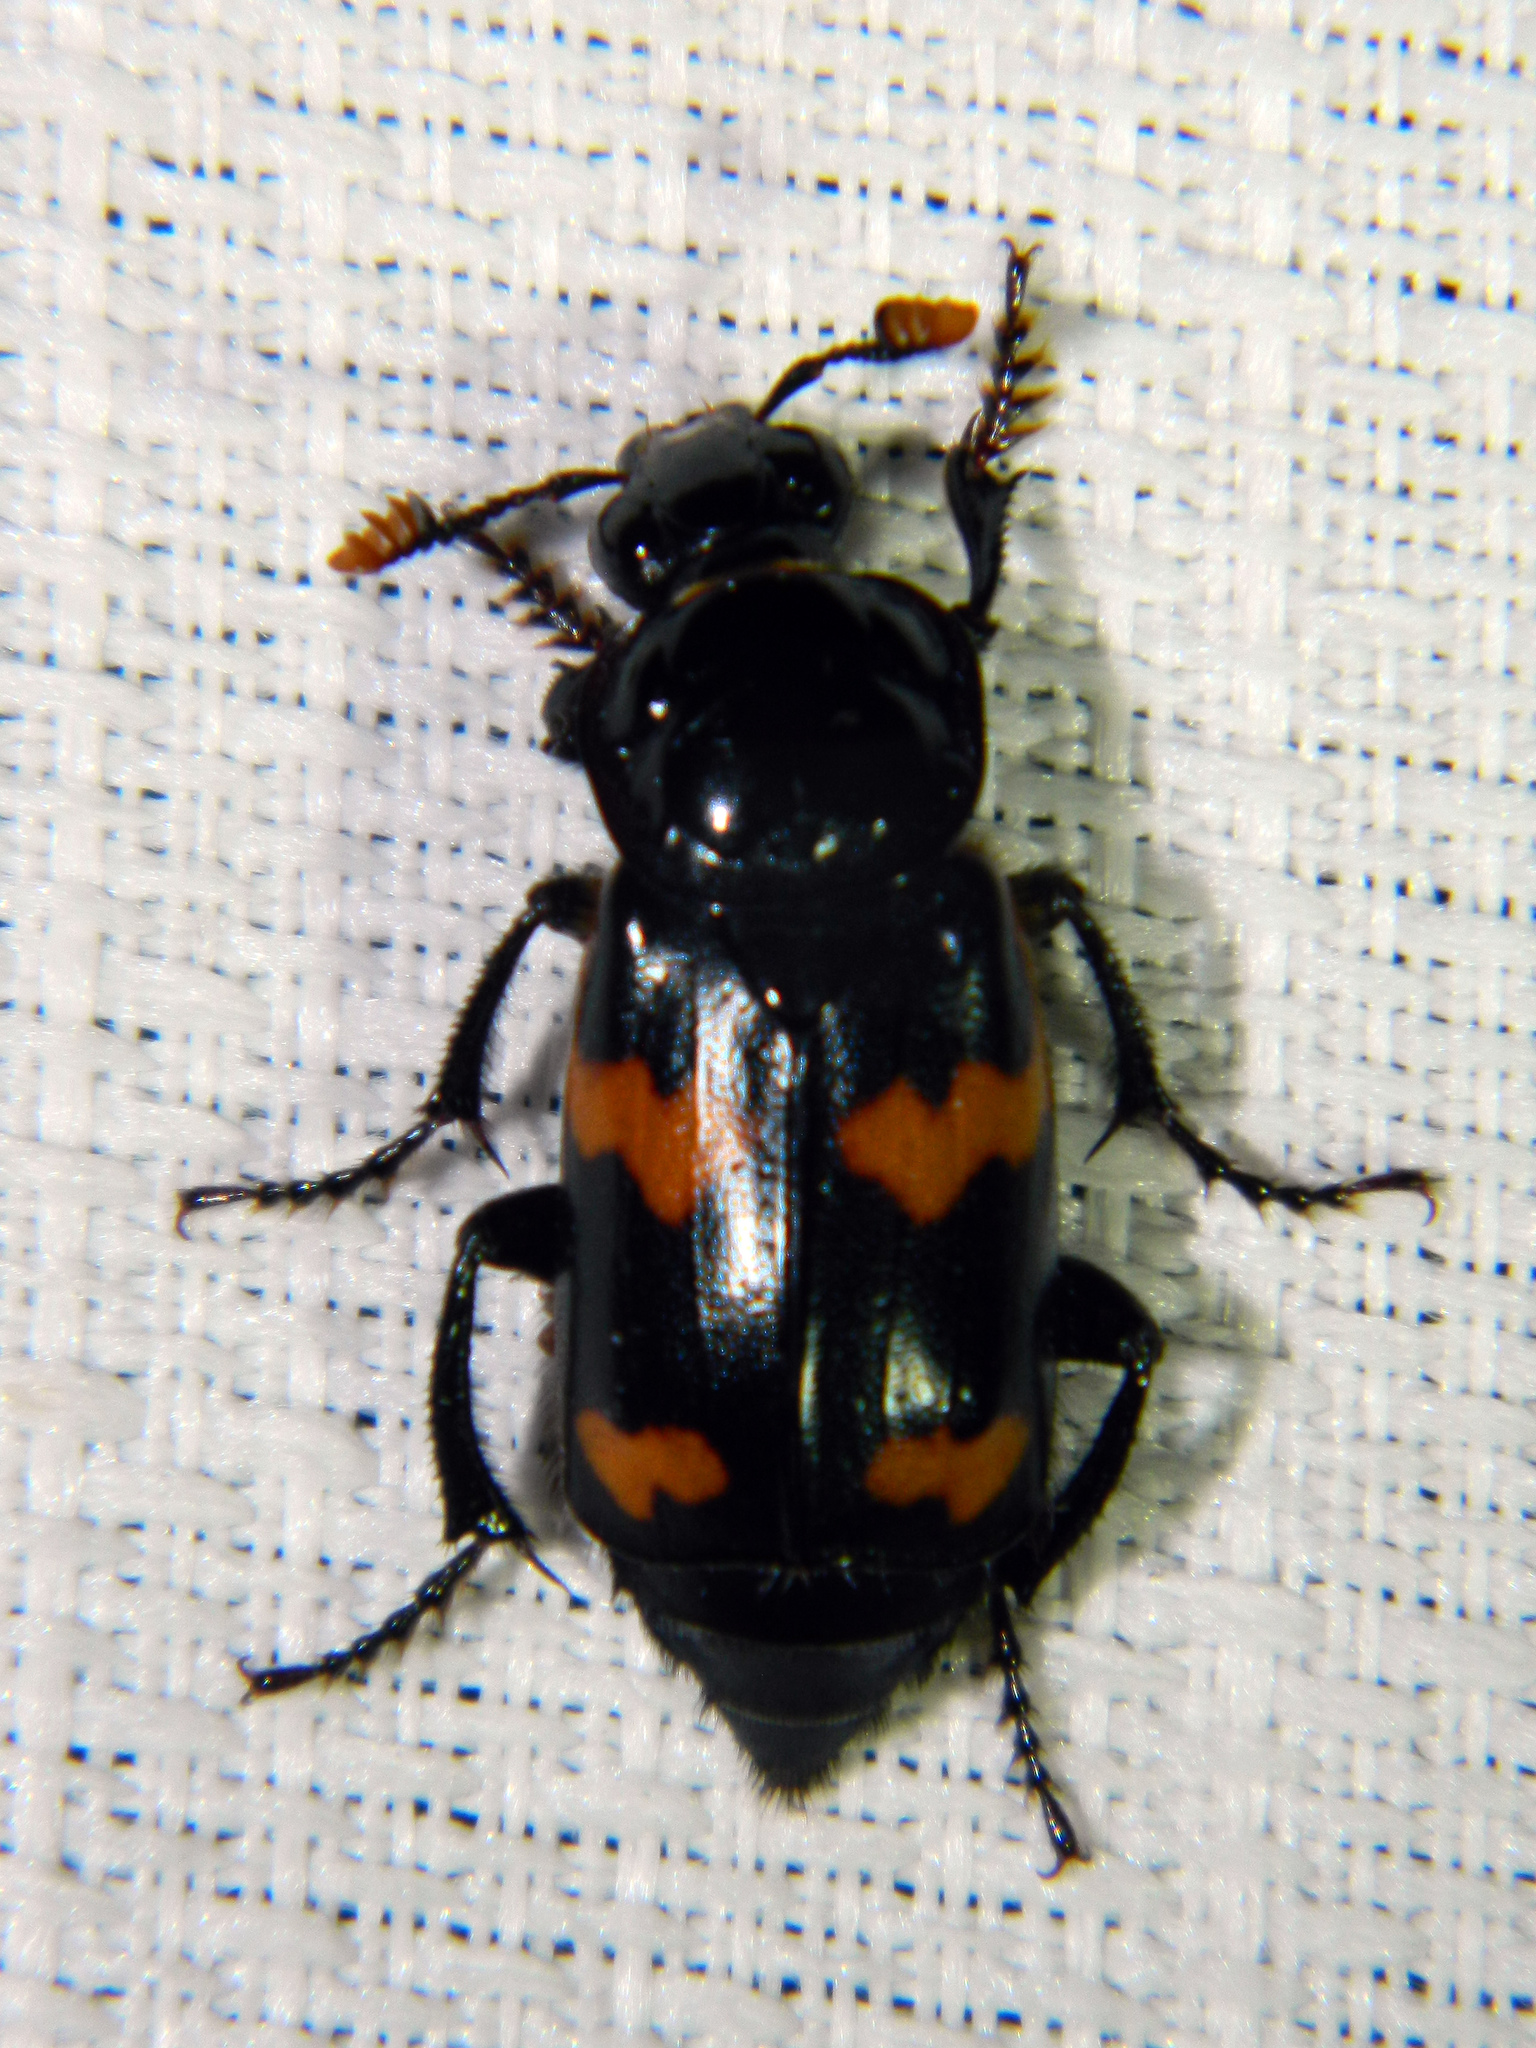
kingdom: Animalia
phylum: Arthropoda
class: Insecta
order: Coleoptera
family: Staphylinidae
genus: Nicrophorus
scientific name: Nicrophorus sayi
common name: Say's burying beetle
